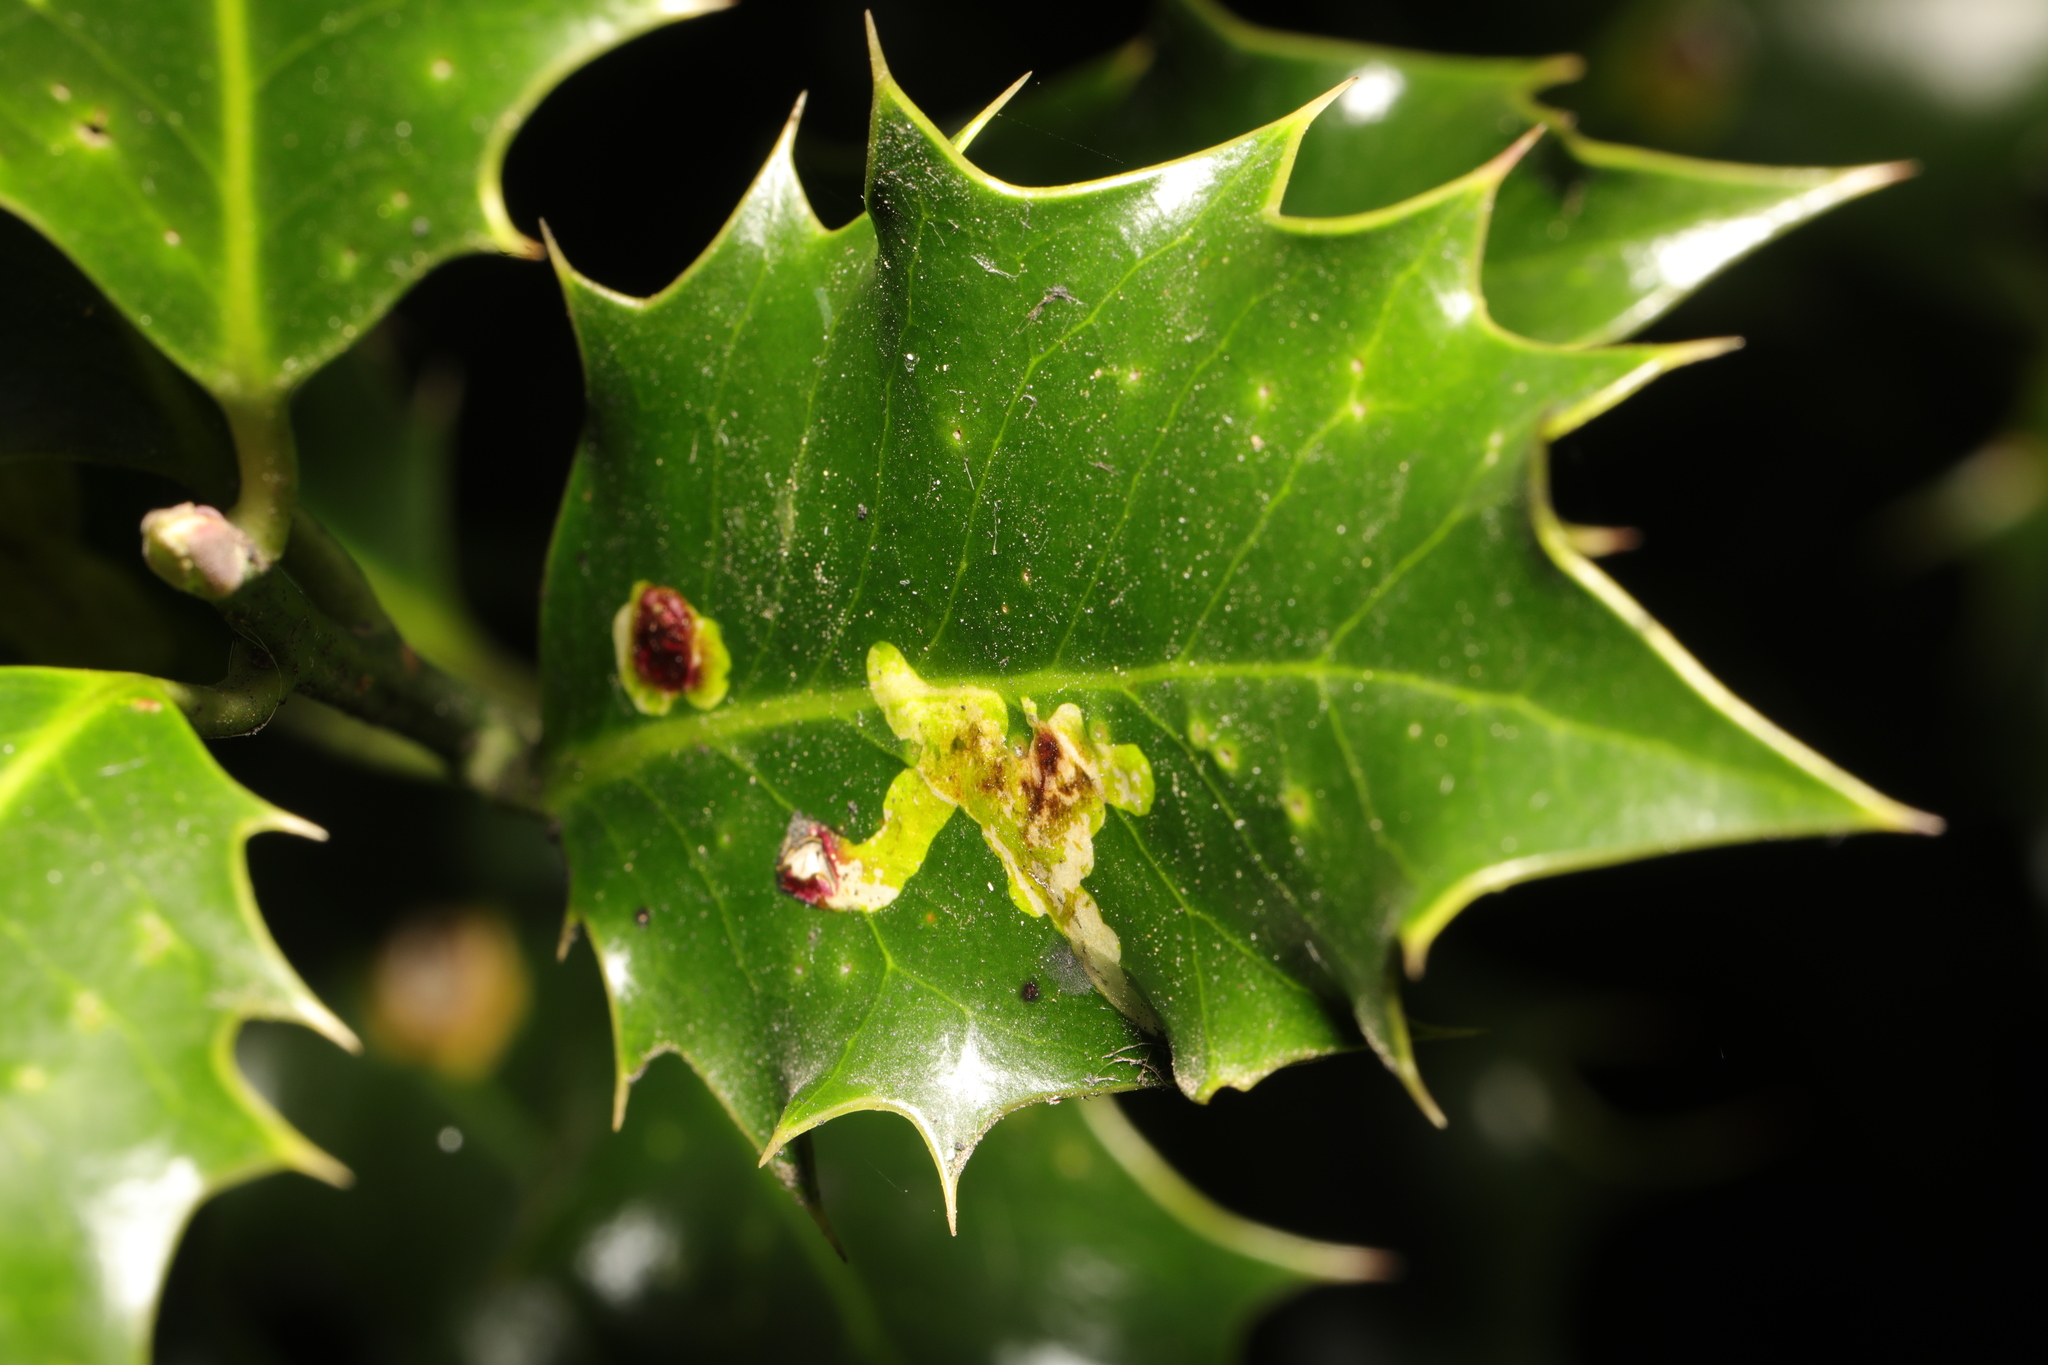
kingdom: Animalia
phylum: Arthropoda
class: Insecta
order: Diptera
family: Agromyzidae
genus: Phytomyza
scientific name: Phytomyza ilicis
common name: Holly leafminer
